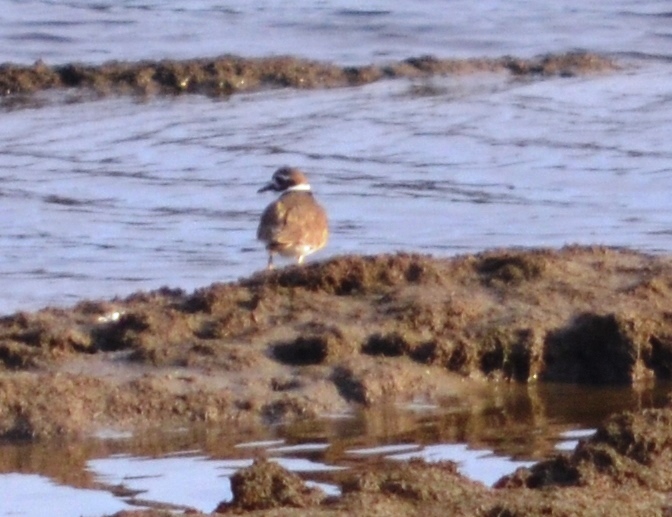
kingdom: Animalia
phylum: Chordata
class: Aves
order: Charadriiformes
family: Charadriidae
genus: Charadrius
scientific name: Charadrius vociferus
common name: Killdeer
